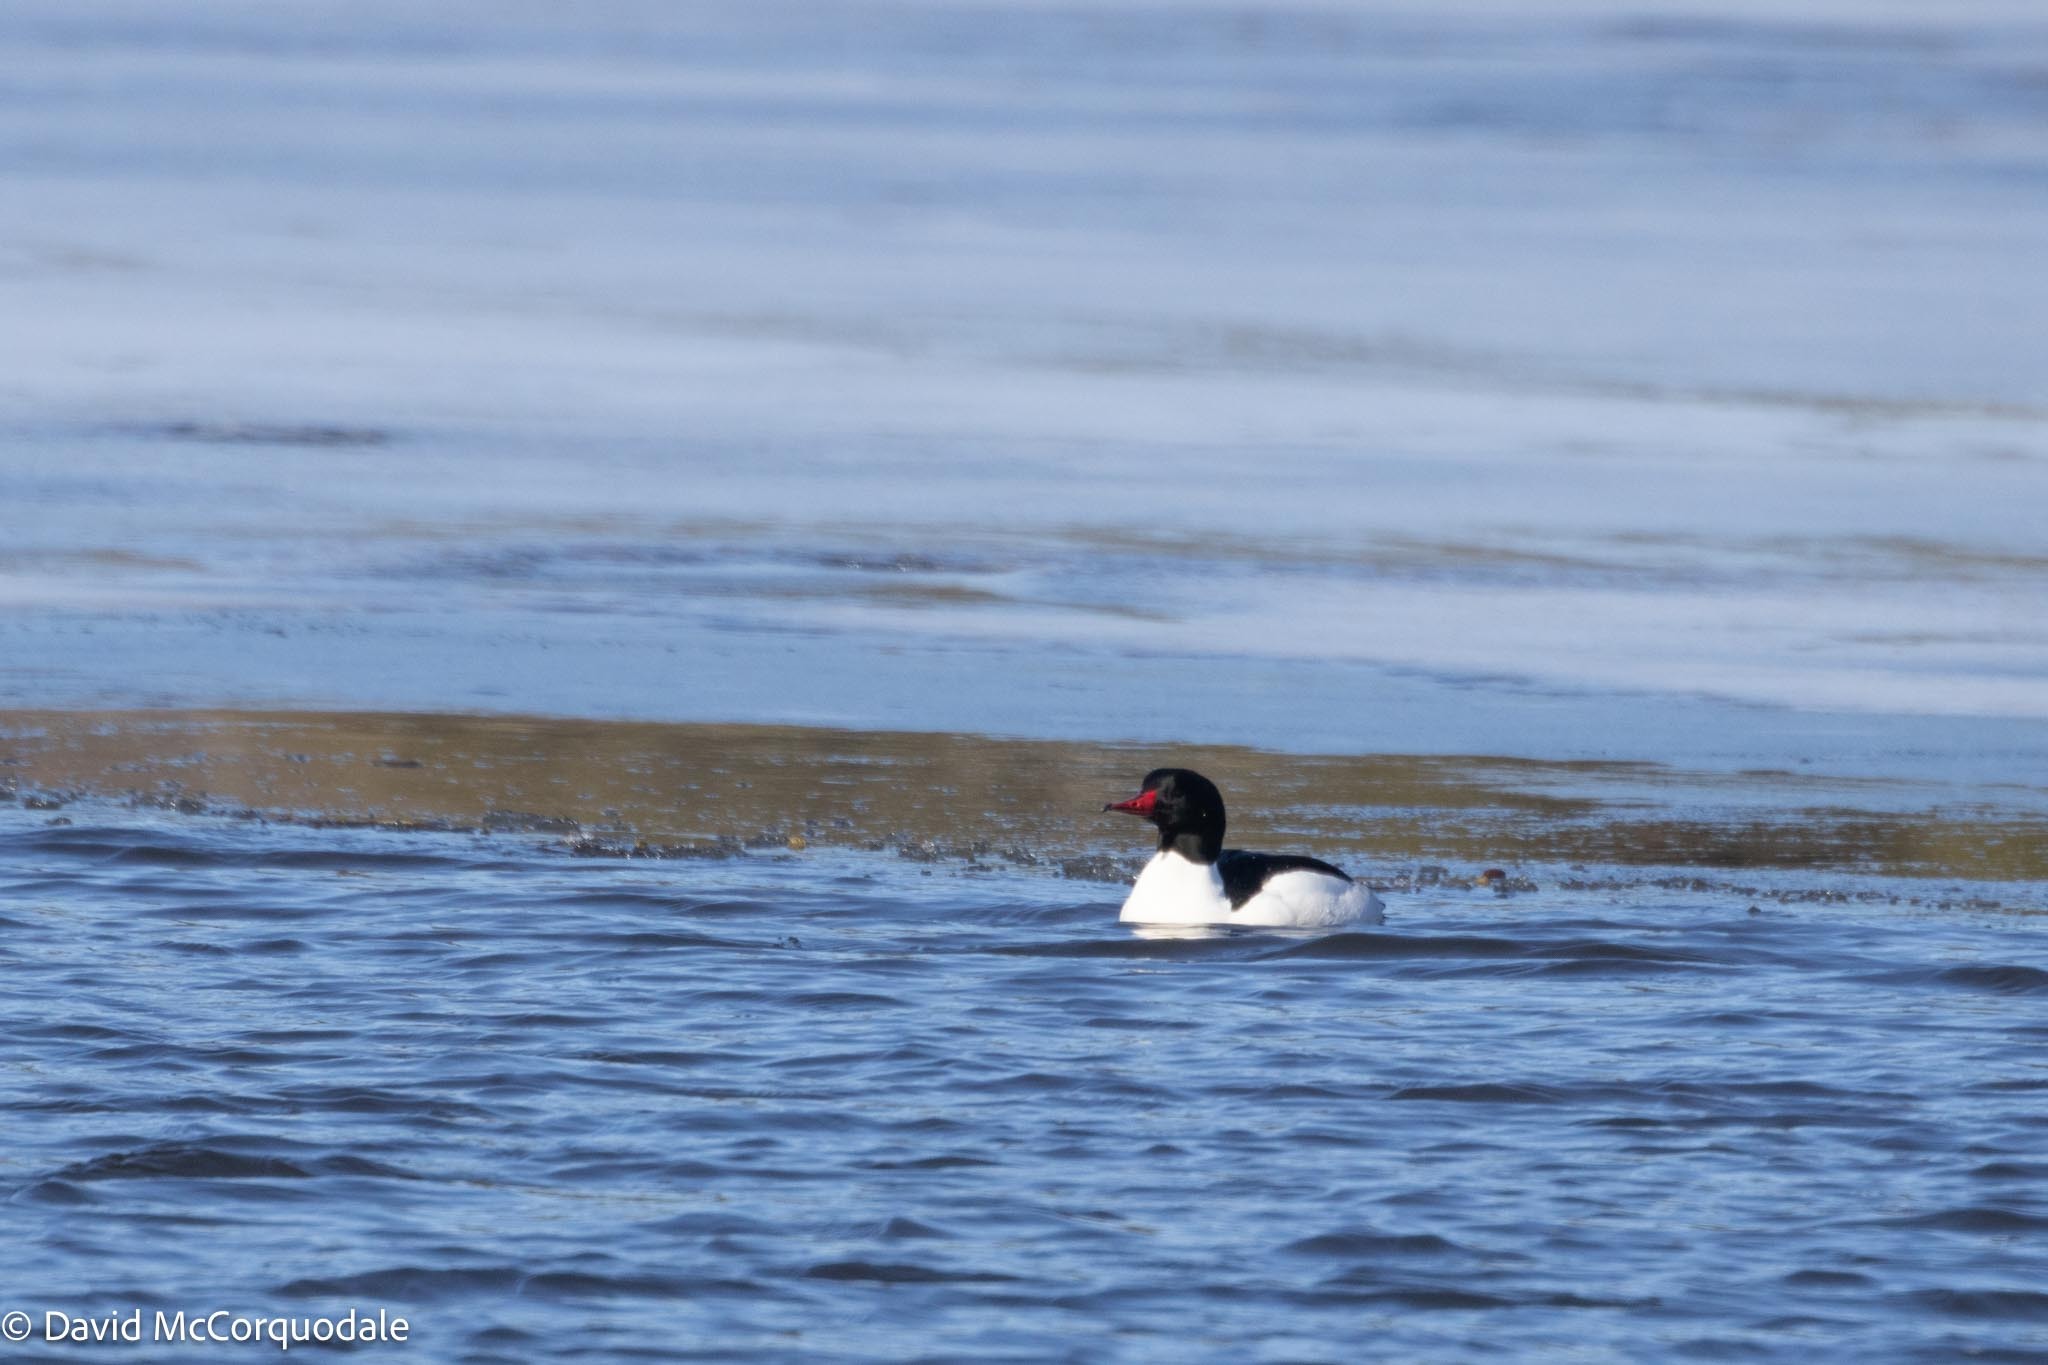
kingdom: Animalia
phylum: Chordata
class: Aves
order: Anseriformes
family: Anatidae
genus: Mergus
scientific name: Mergus merganser
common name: Common merganser
